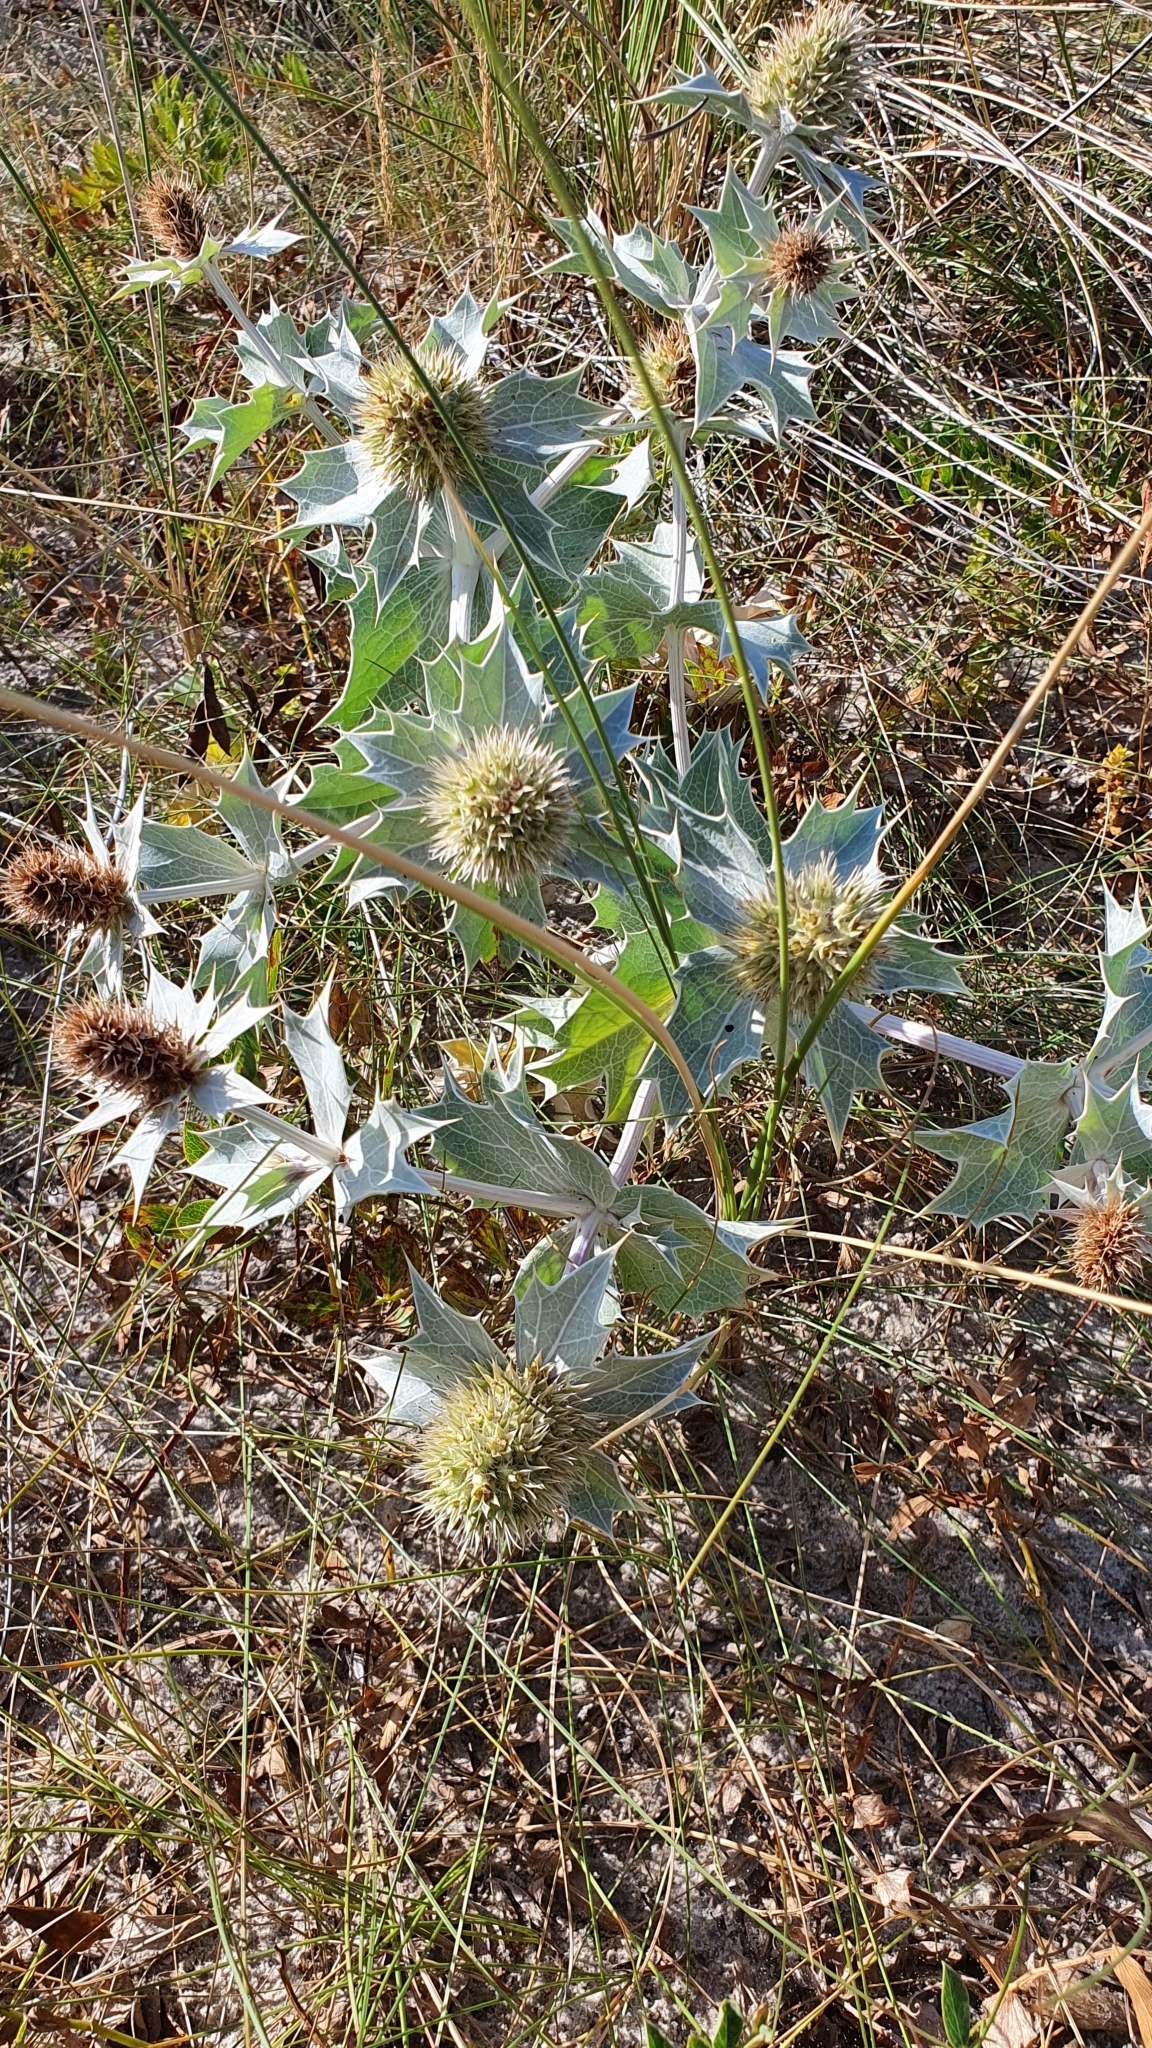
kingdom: Plantae
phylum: Tracheophyta
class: Magnoliopsida
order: Apiales
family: Apiaceae
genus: Eryngium
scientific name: Eryngium maritimum
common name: Sea-holly
